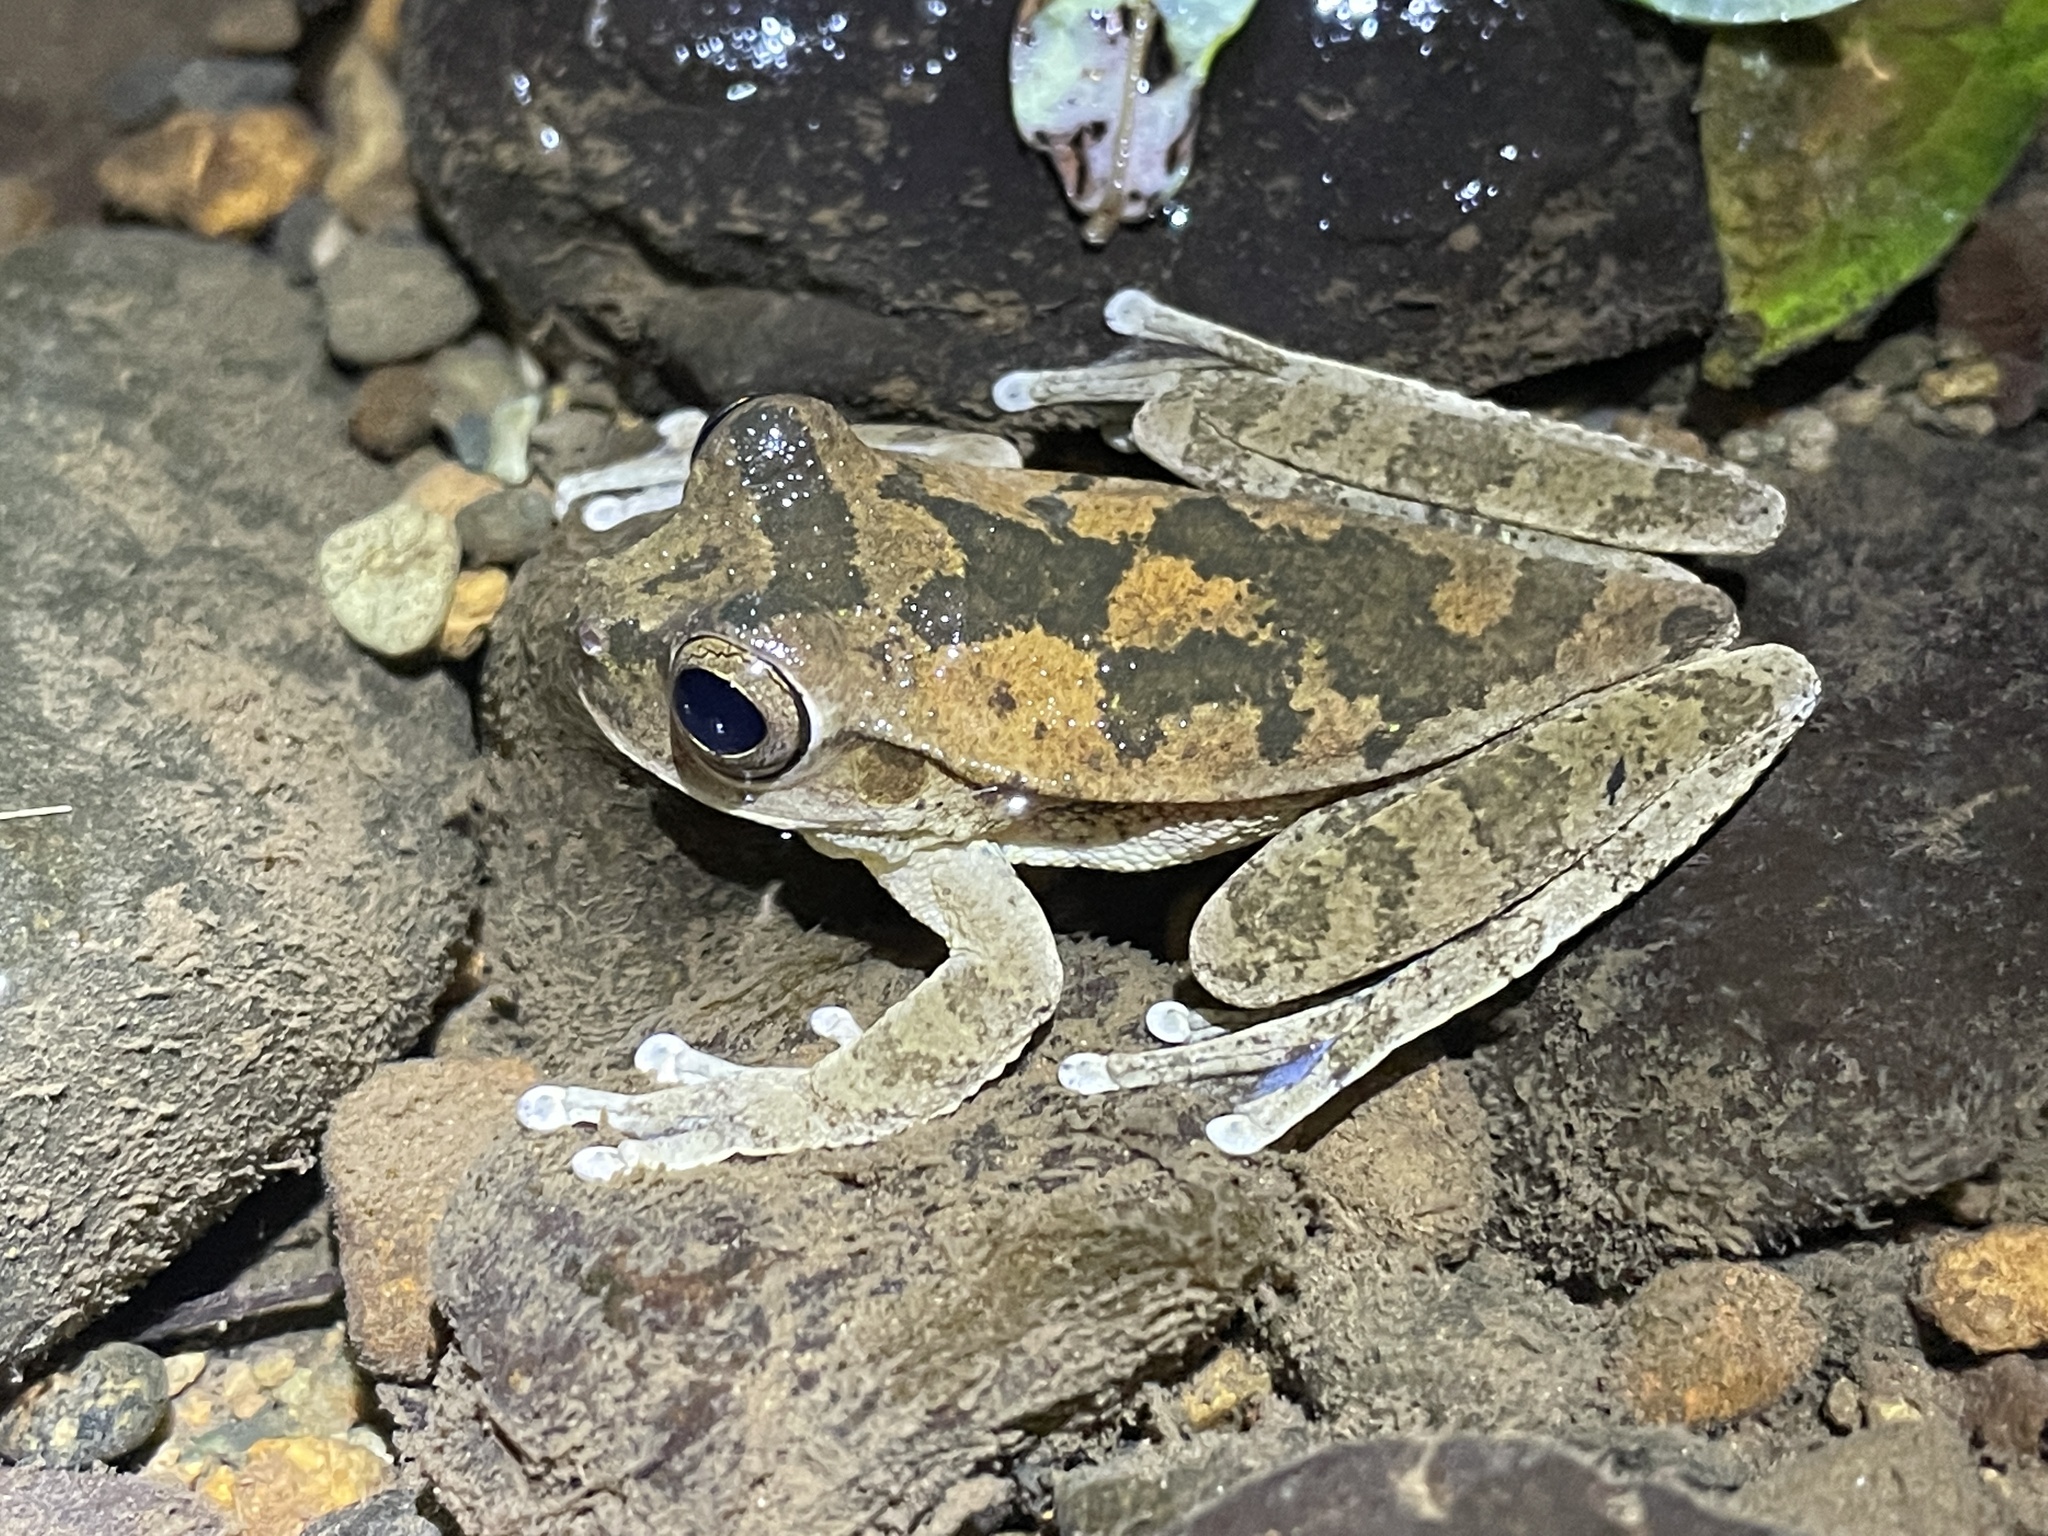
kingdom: Animalia
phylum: Chordata
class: Amphibia
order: Anura
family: Hylidae
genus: Smilisca
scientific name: Smilisca sila
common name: Panama cross-banded treefrog
